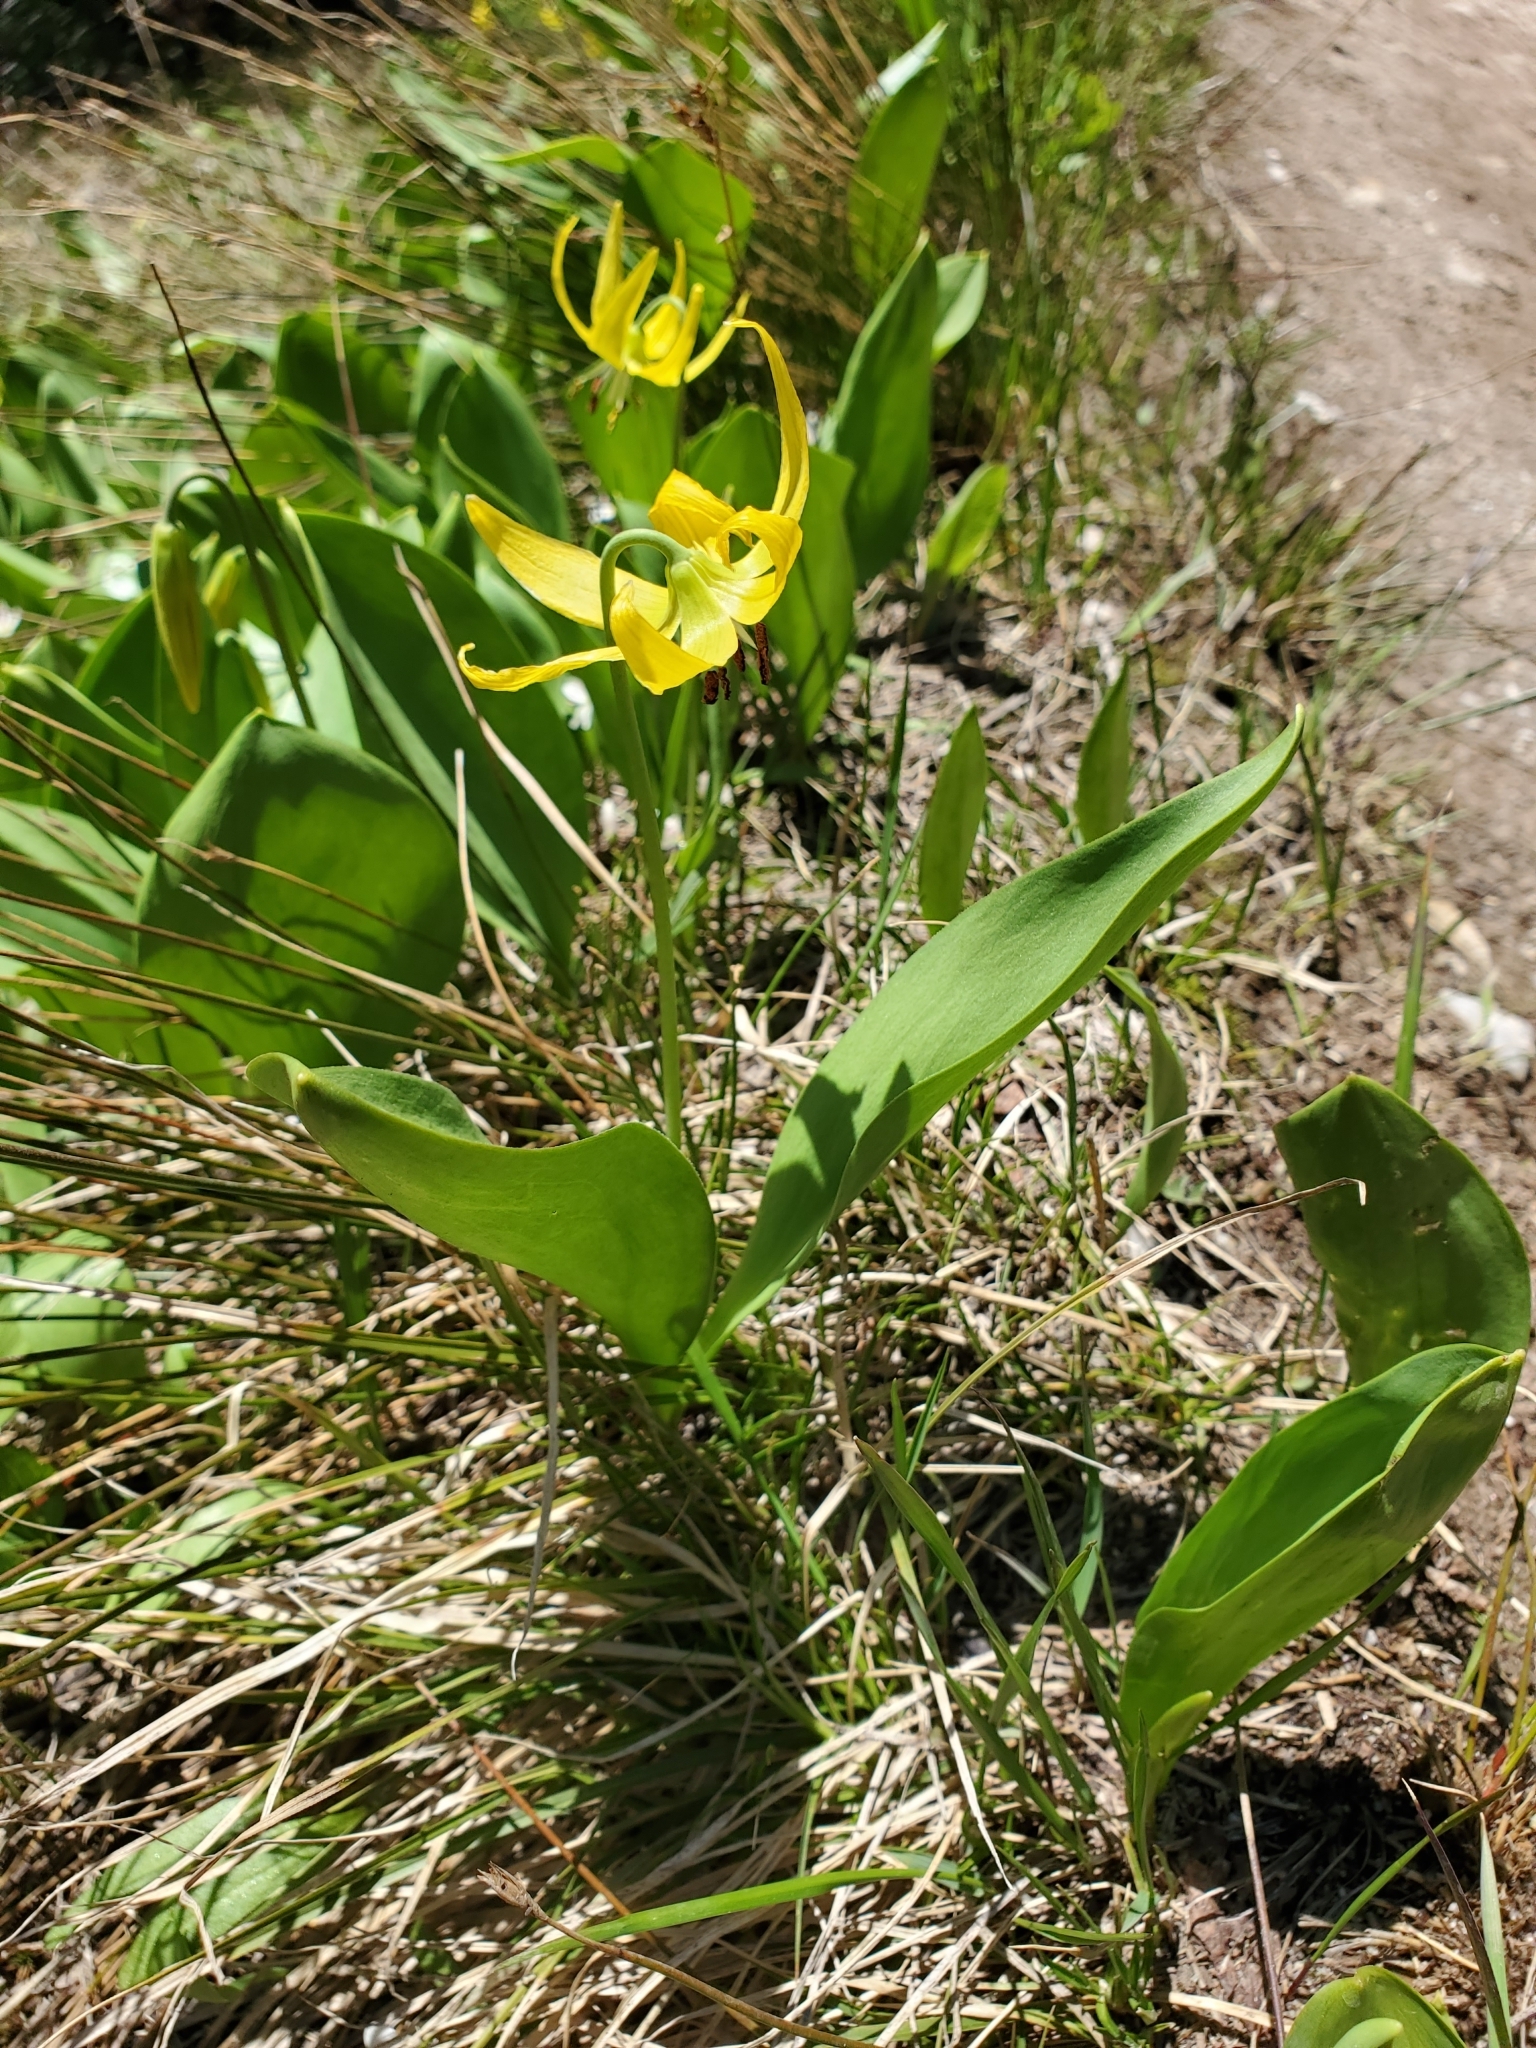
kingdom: Plantae
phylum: Tracheophyta
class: Liliopsida
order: Liliales
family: Liliaceae
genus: Erythronium
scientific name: Erythronium grandiflorum
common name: Avalanche-lily
